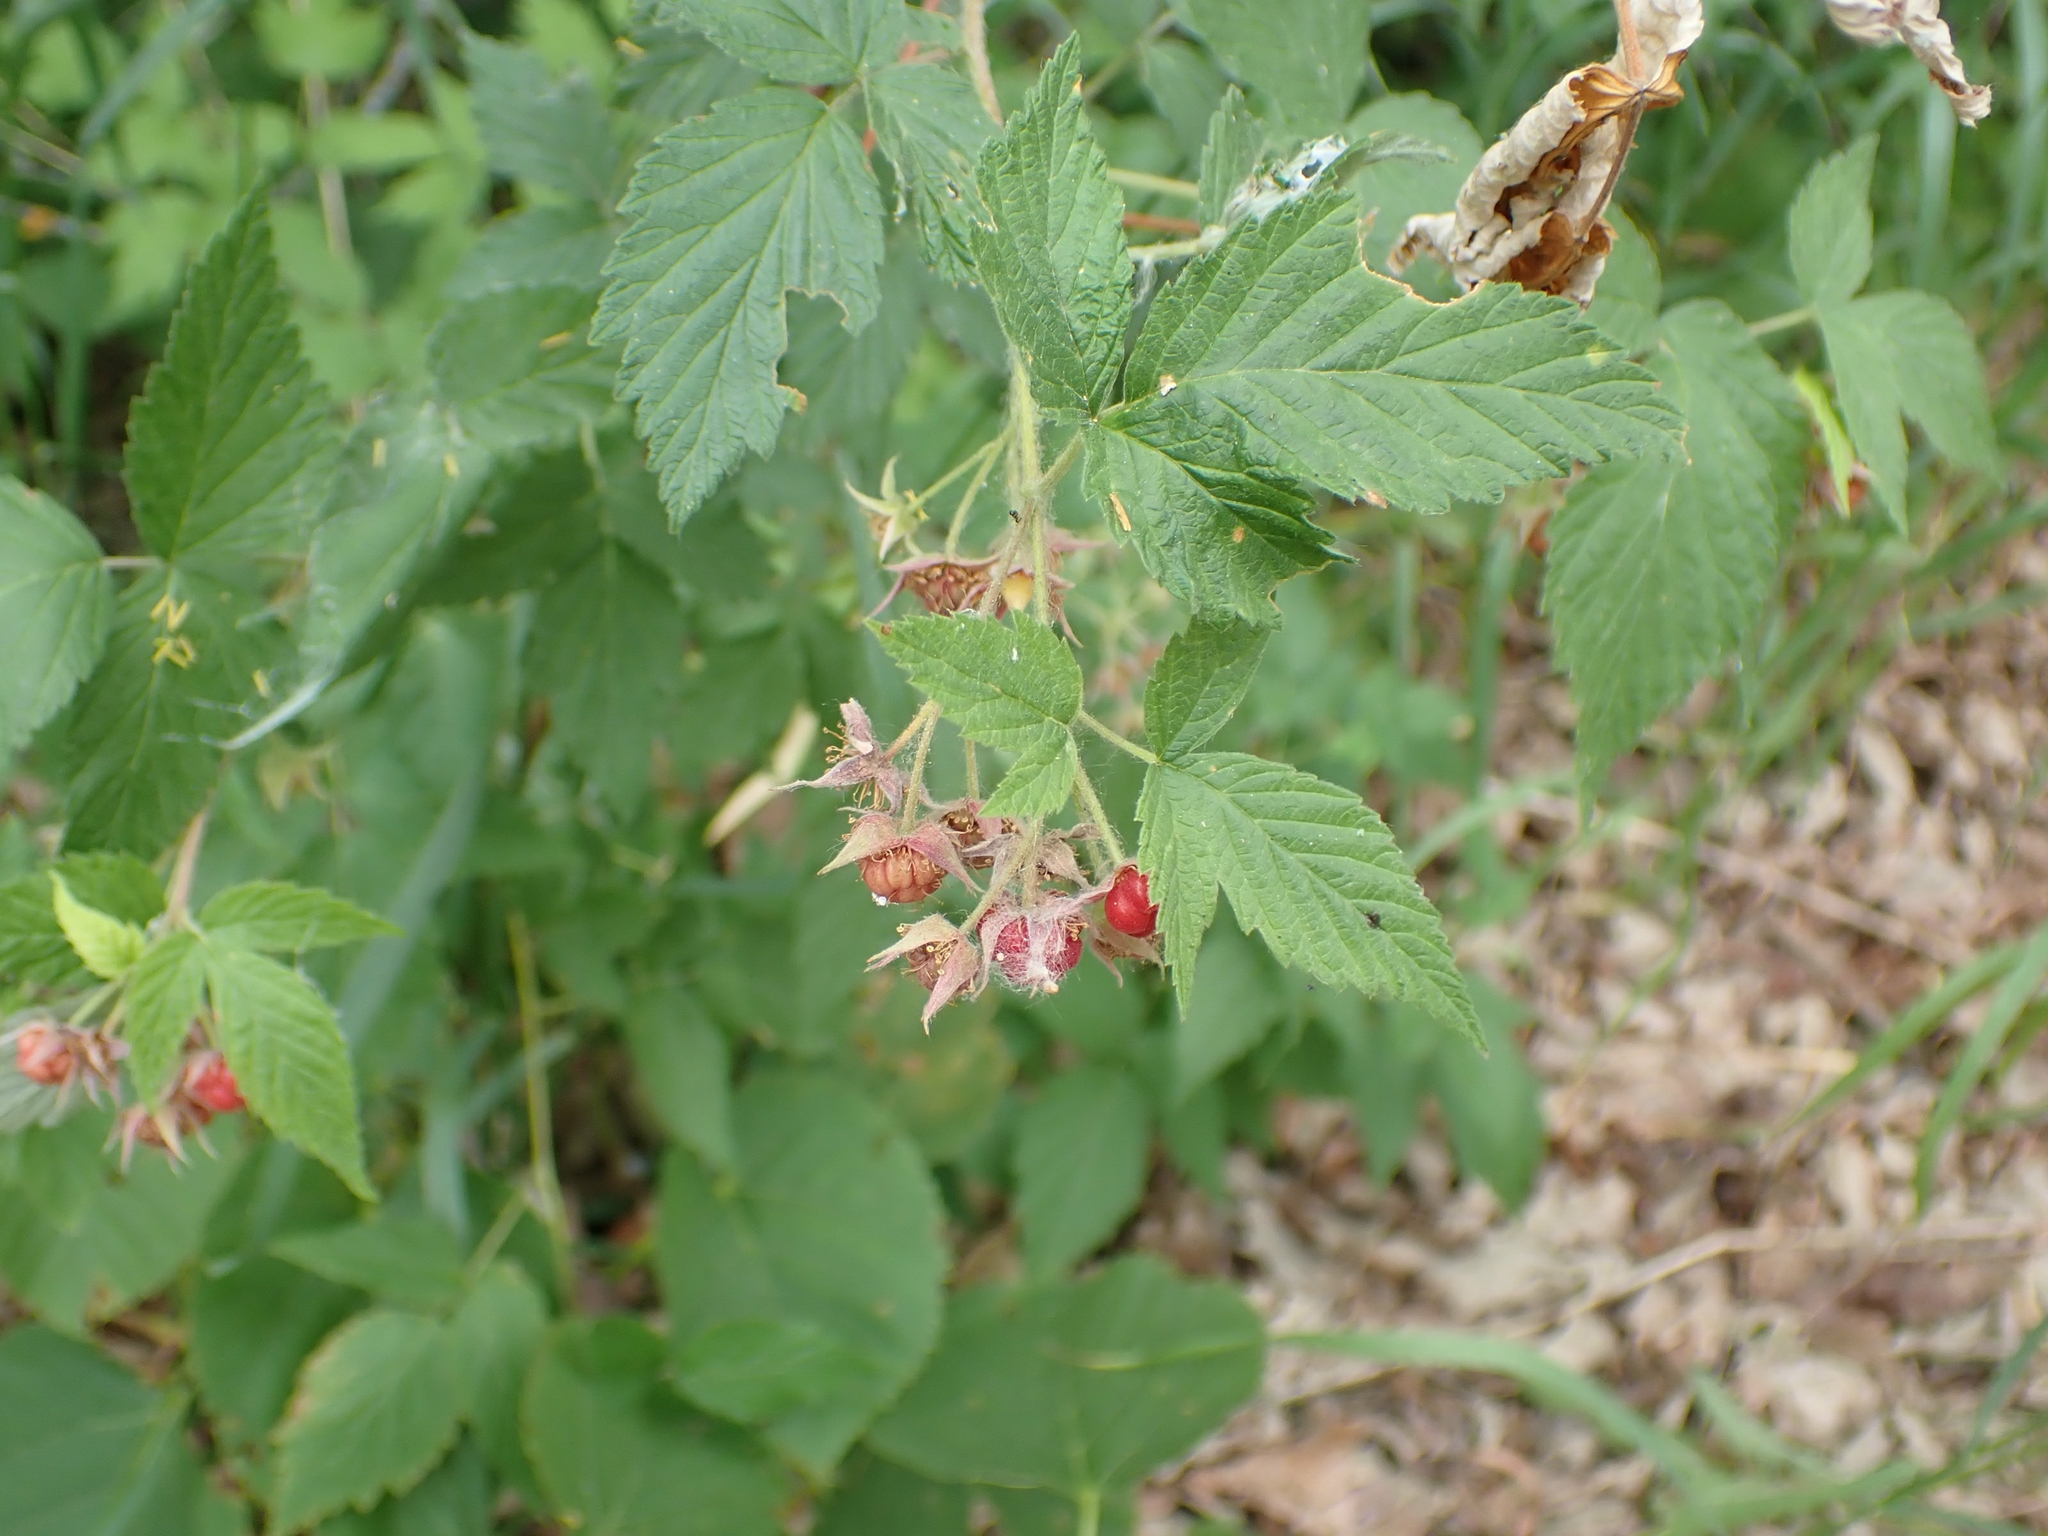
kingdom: Plantae
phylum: Tracheophyta
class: Magnoliopsida
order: Rosales
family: Rosaceae
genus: Rubus
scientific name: Rubus idaeus
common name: Raspberry
